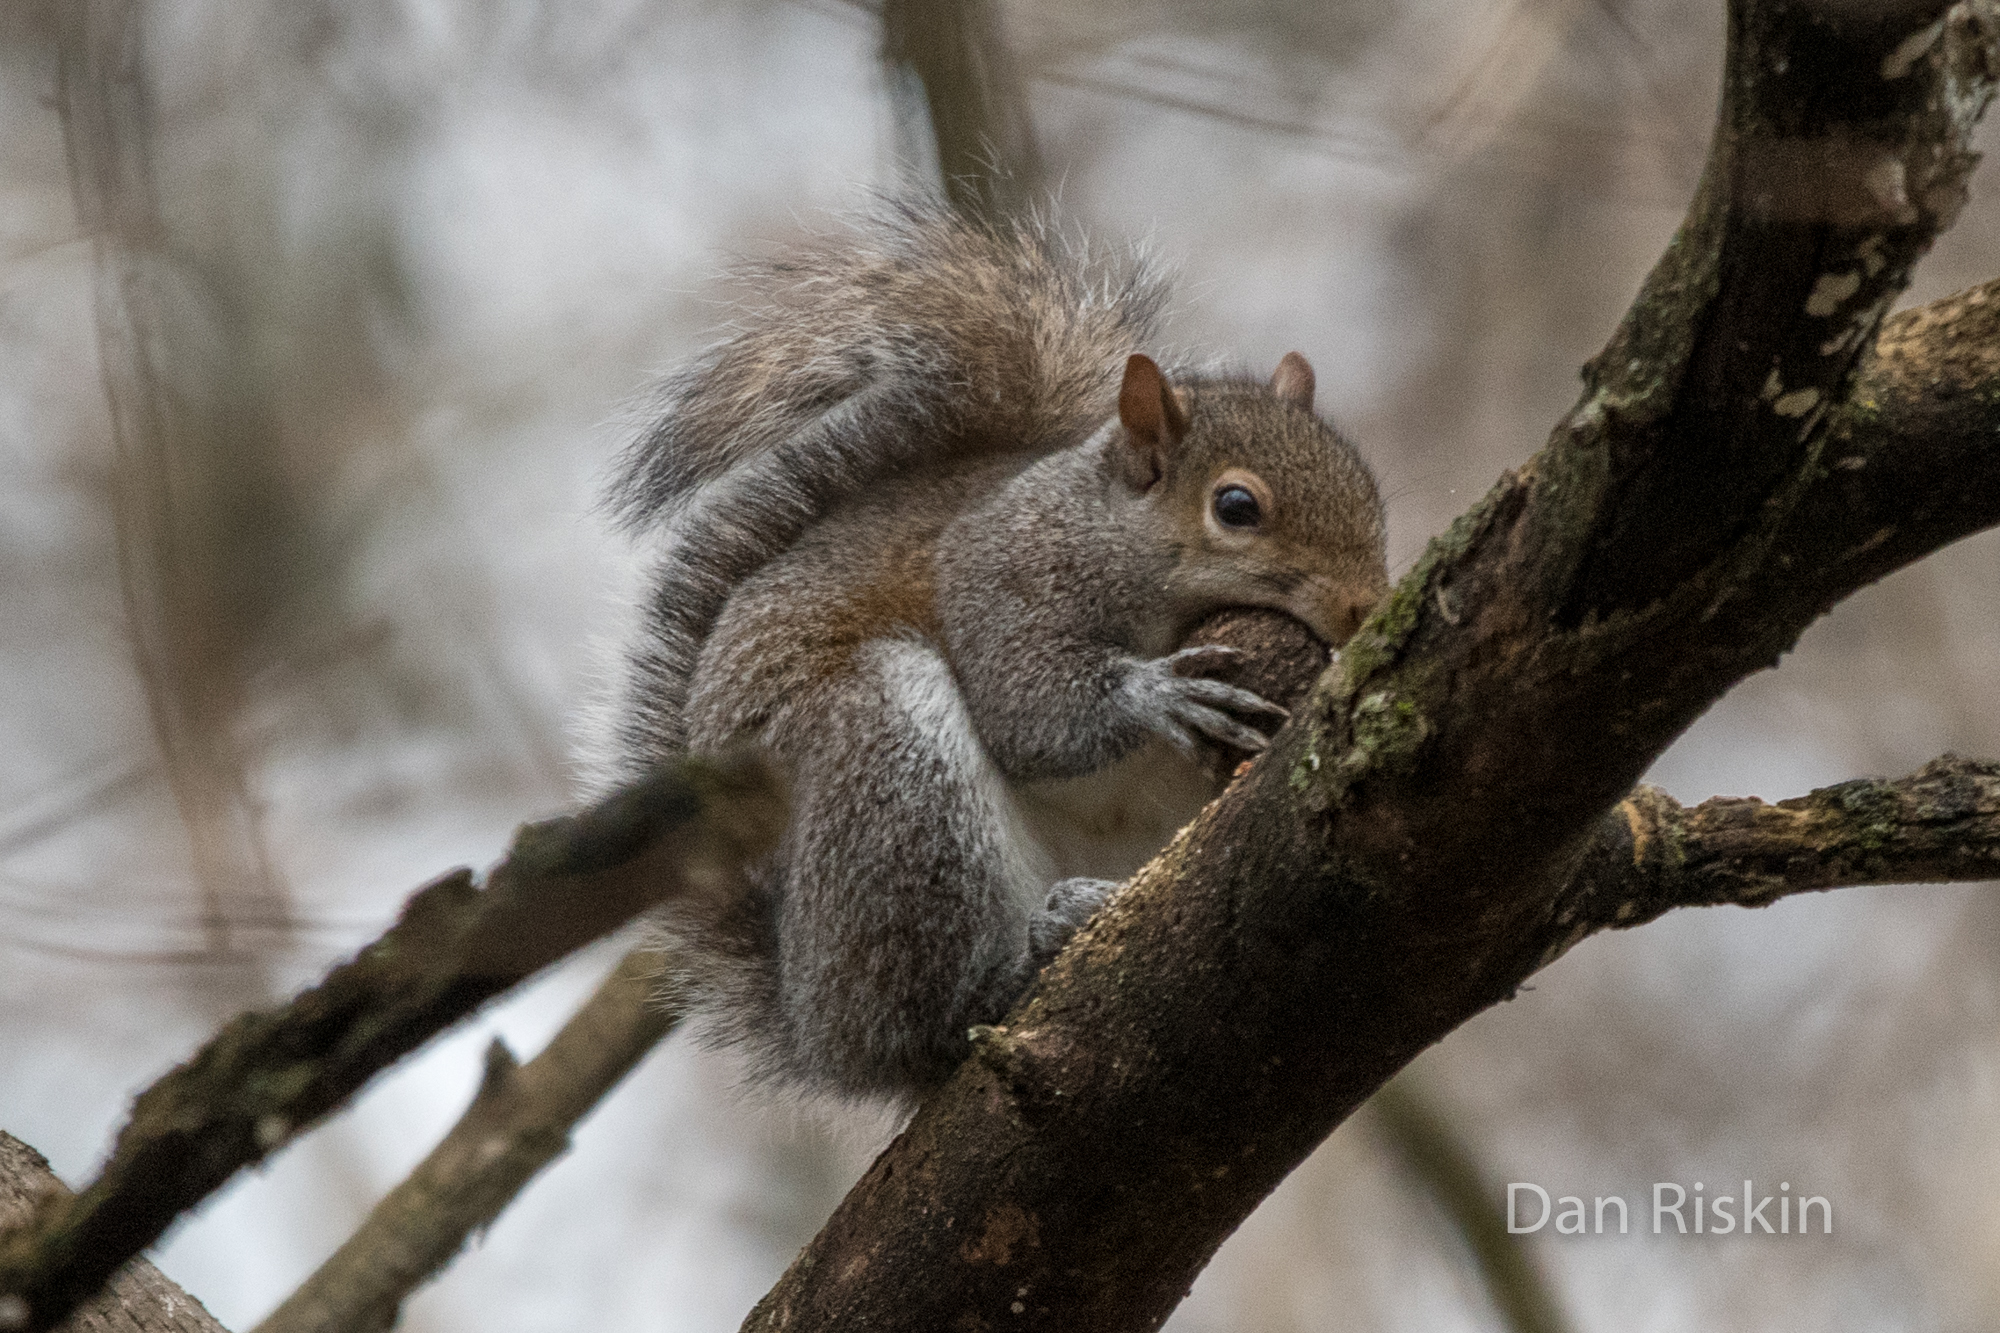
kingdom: Animalia
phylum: Chordata
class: Mammalia
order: Rodentia
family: Sciuridae
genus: Sciurus
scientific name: Sciurus carolinensis
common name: Eastern gray squirrel
